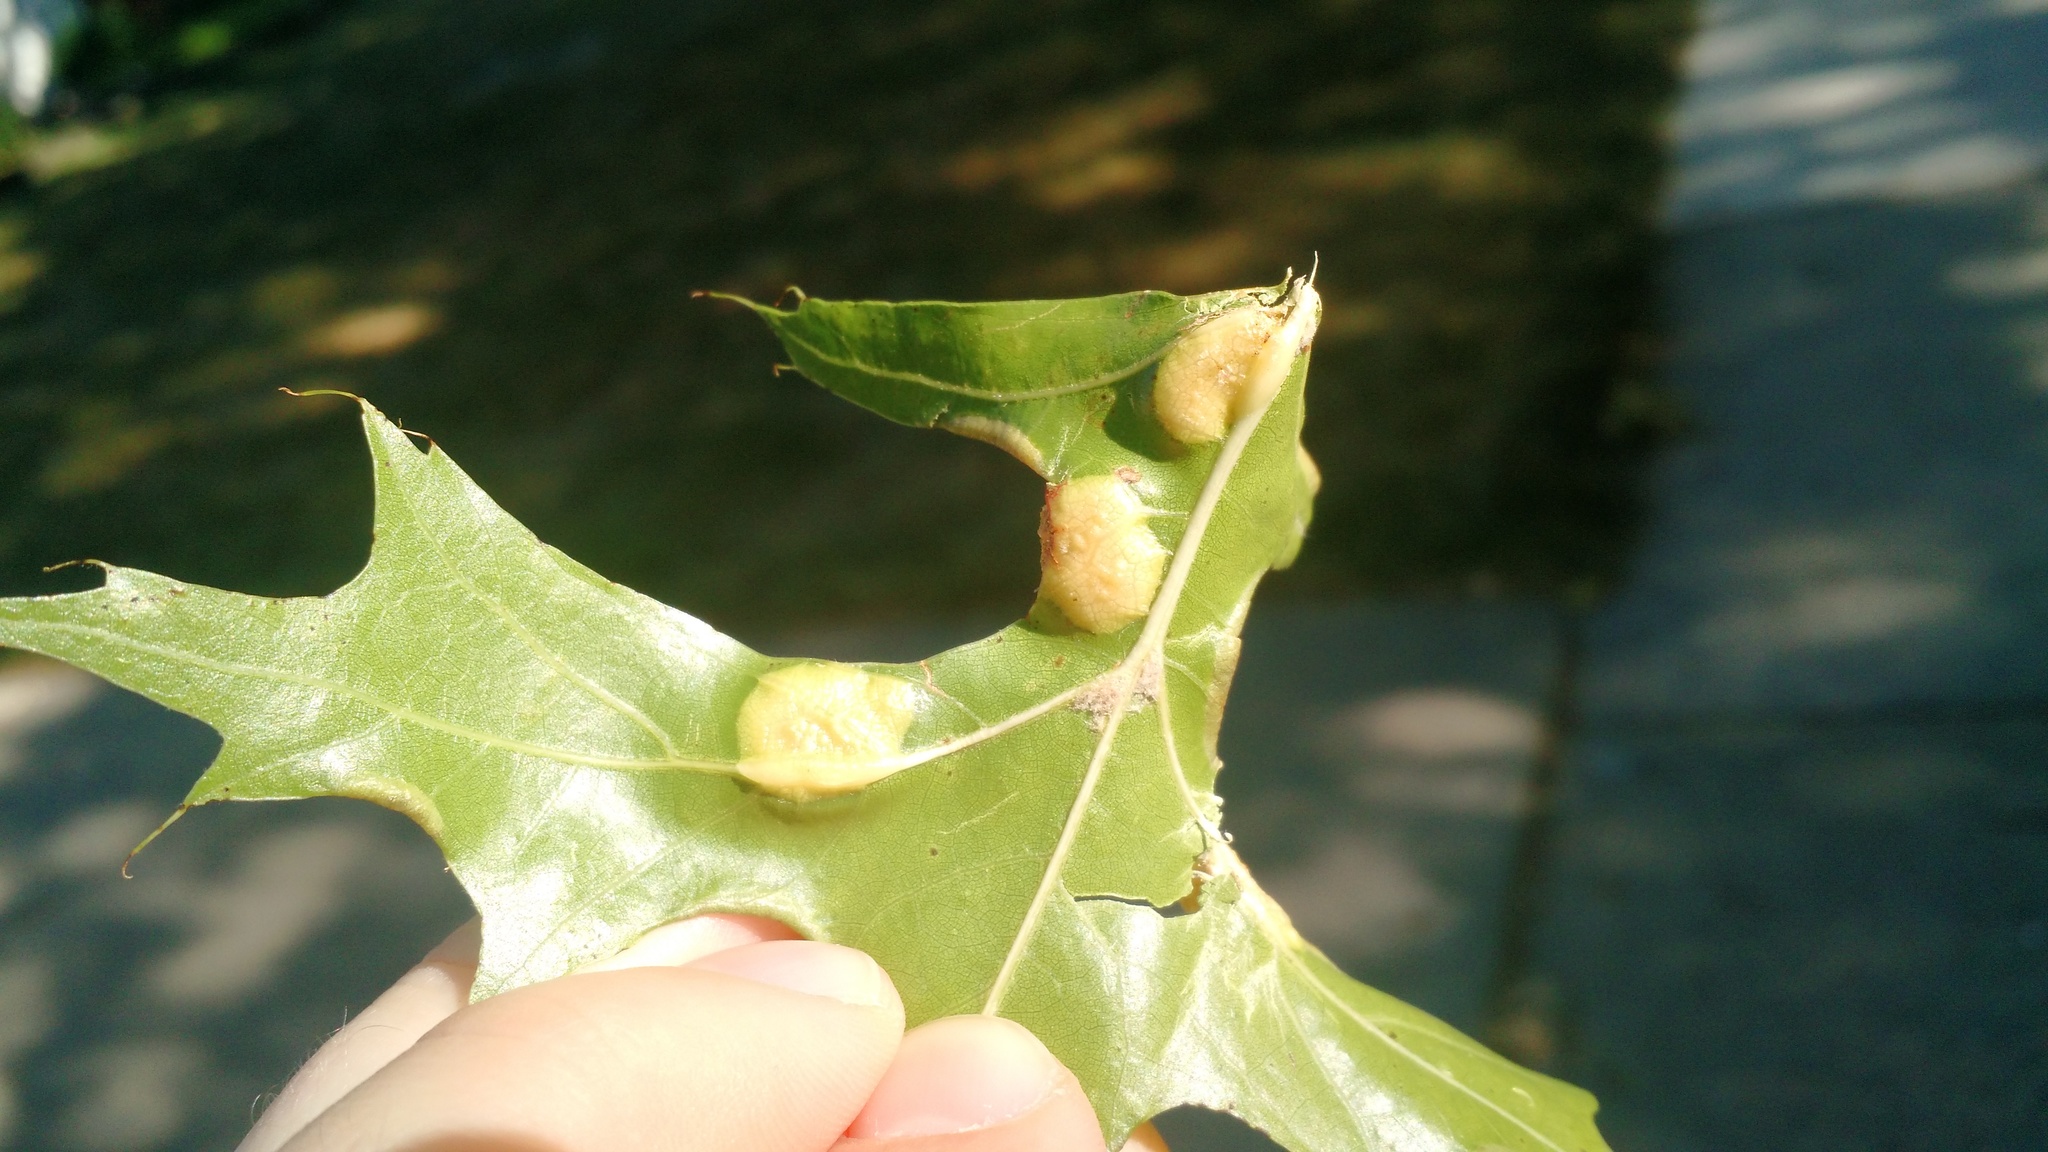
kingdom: Animalia
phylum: Arthropoda
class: Insecta
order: Diptera
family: Cecidomyiidae
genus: Polystepha
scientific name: Polystepha pilulae
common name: Oak leaf gall midge
